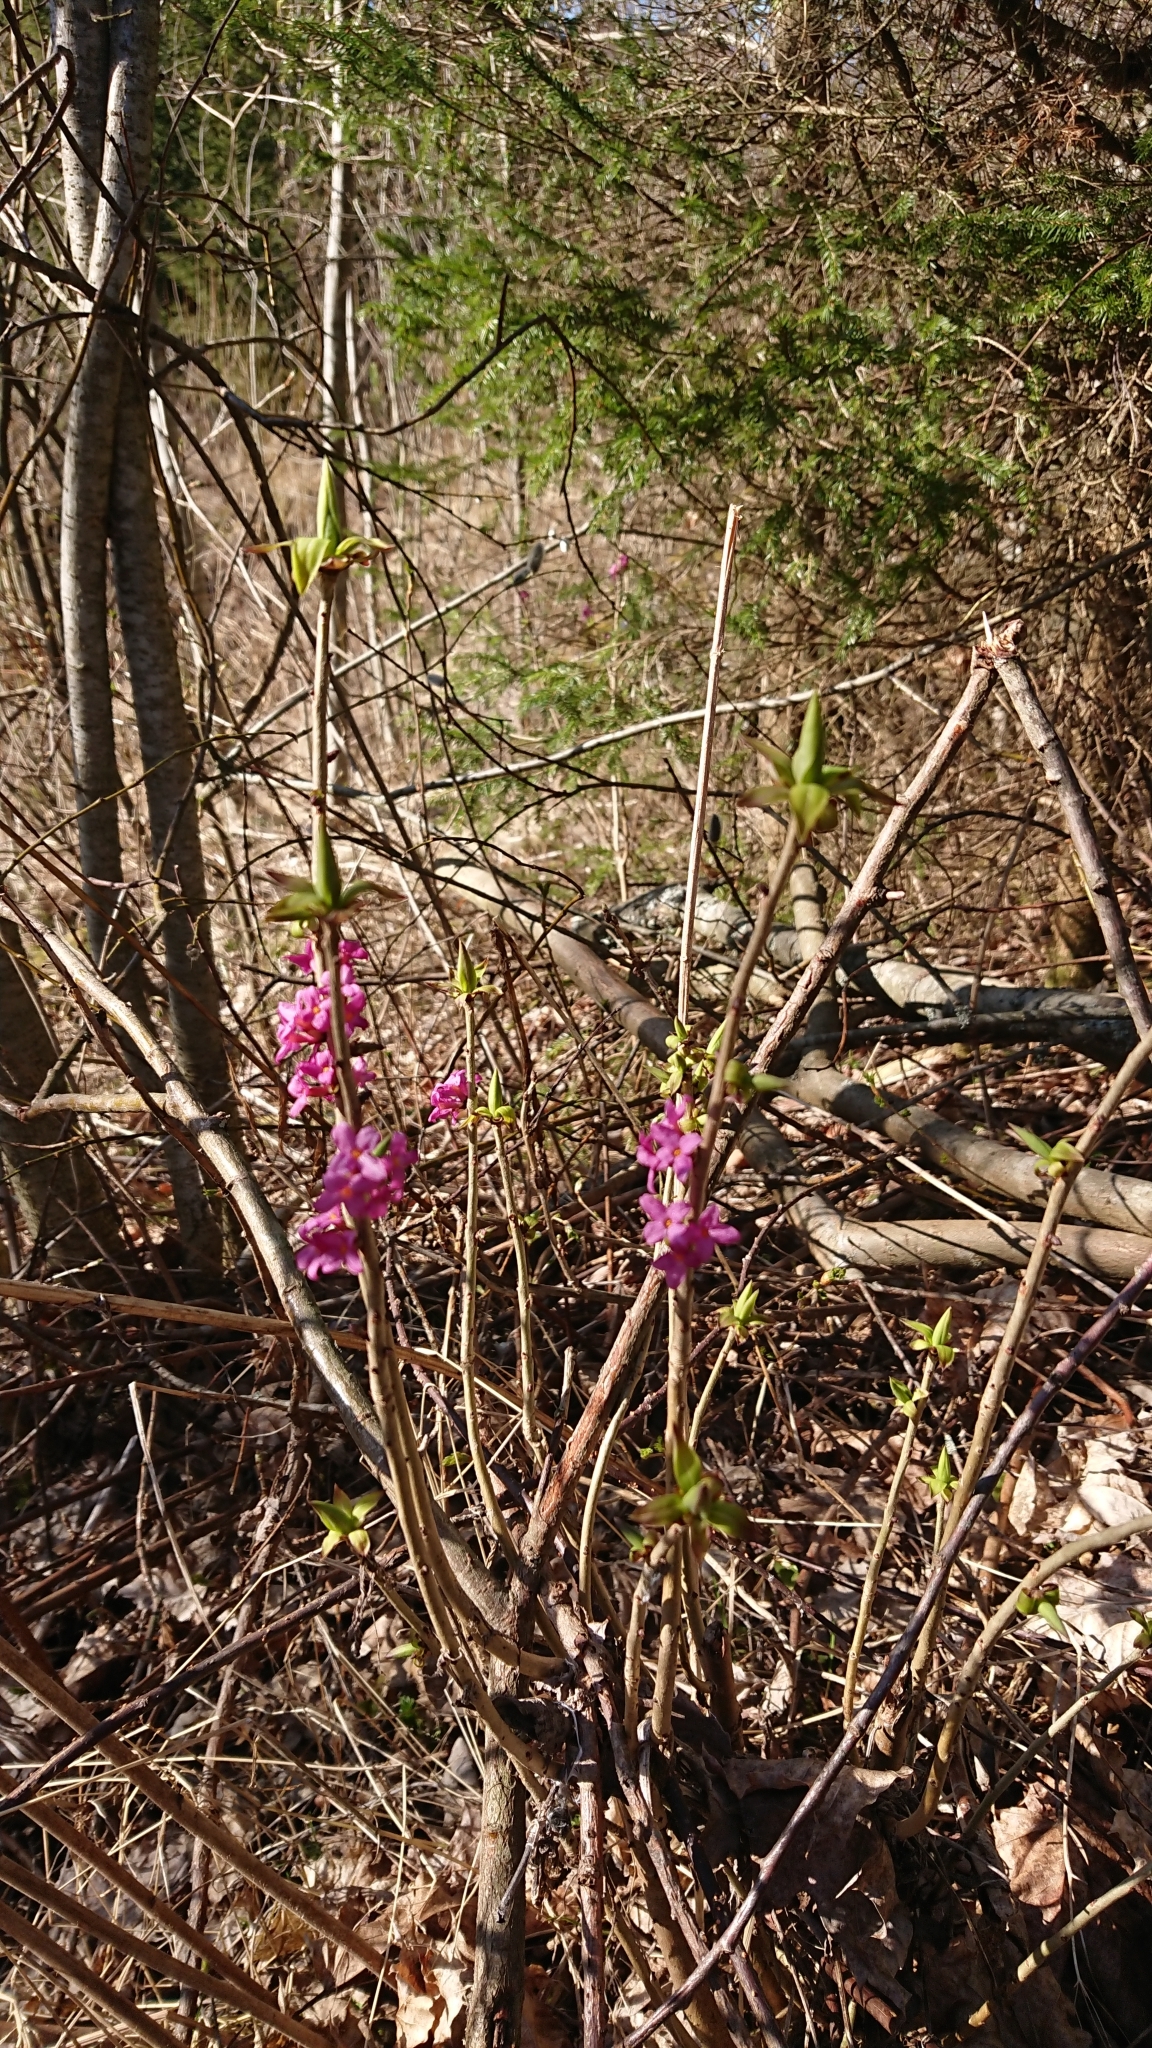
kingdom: Plantae
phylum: Tracheophyta
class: Magnoliopsida
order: Malvales
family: Thymelaeaceae
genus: Daphne
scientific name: Daphne mezereum
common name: Mezereon
